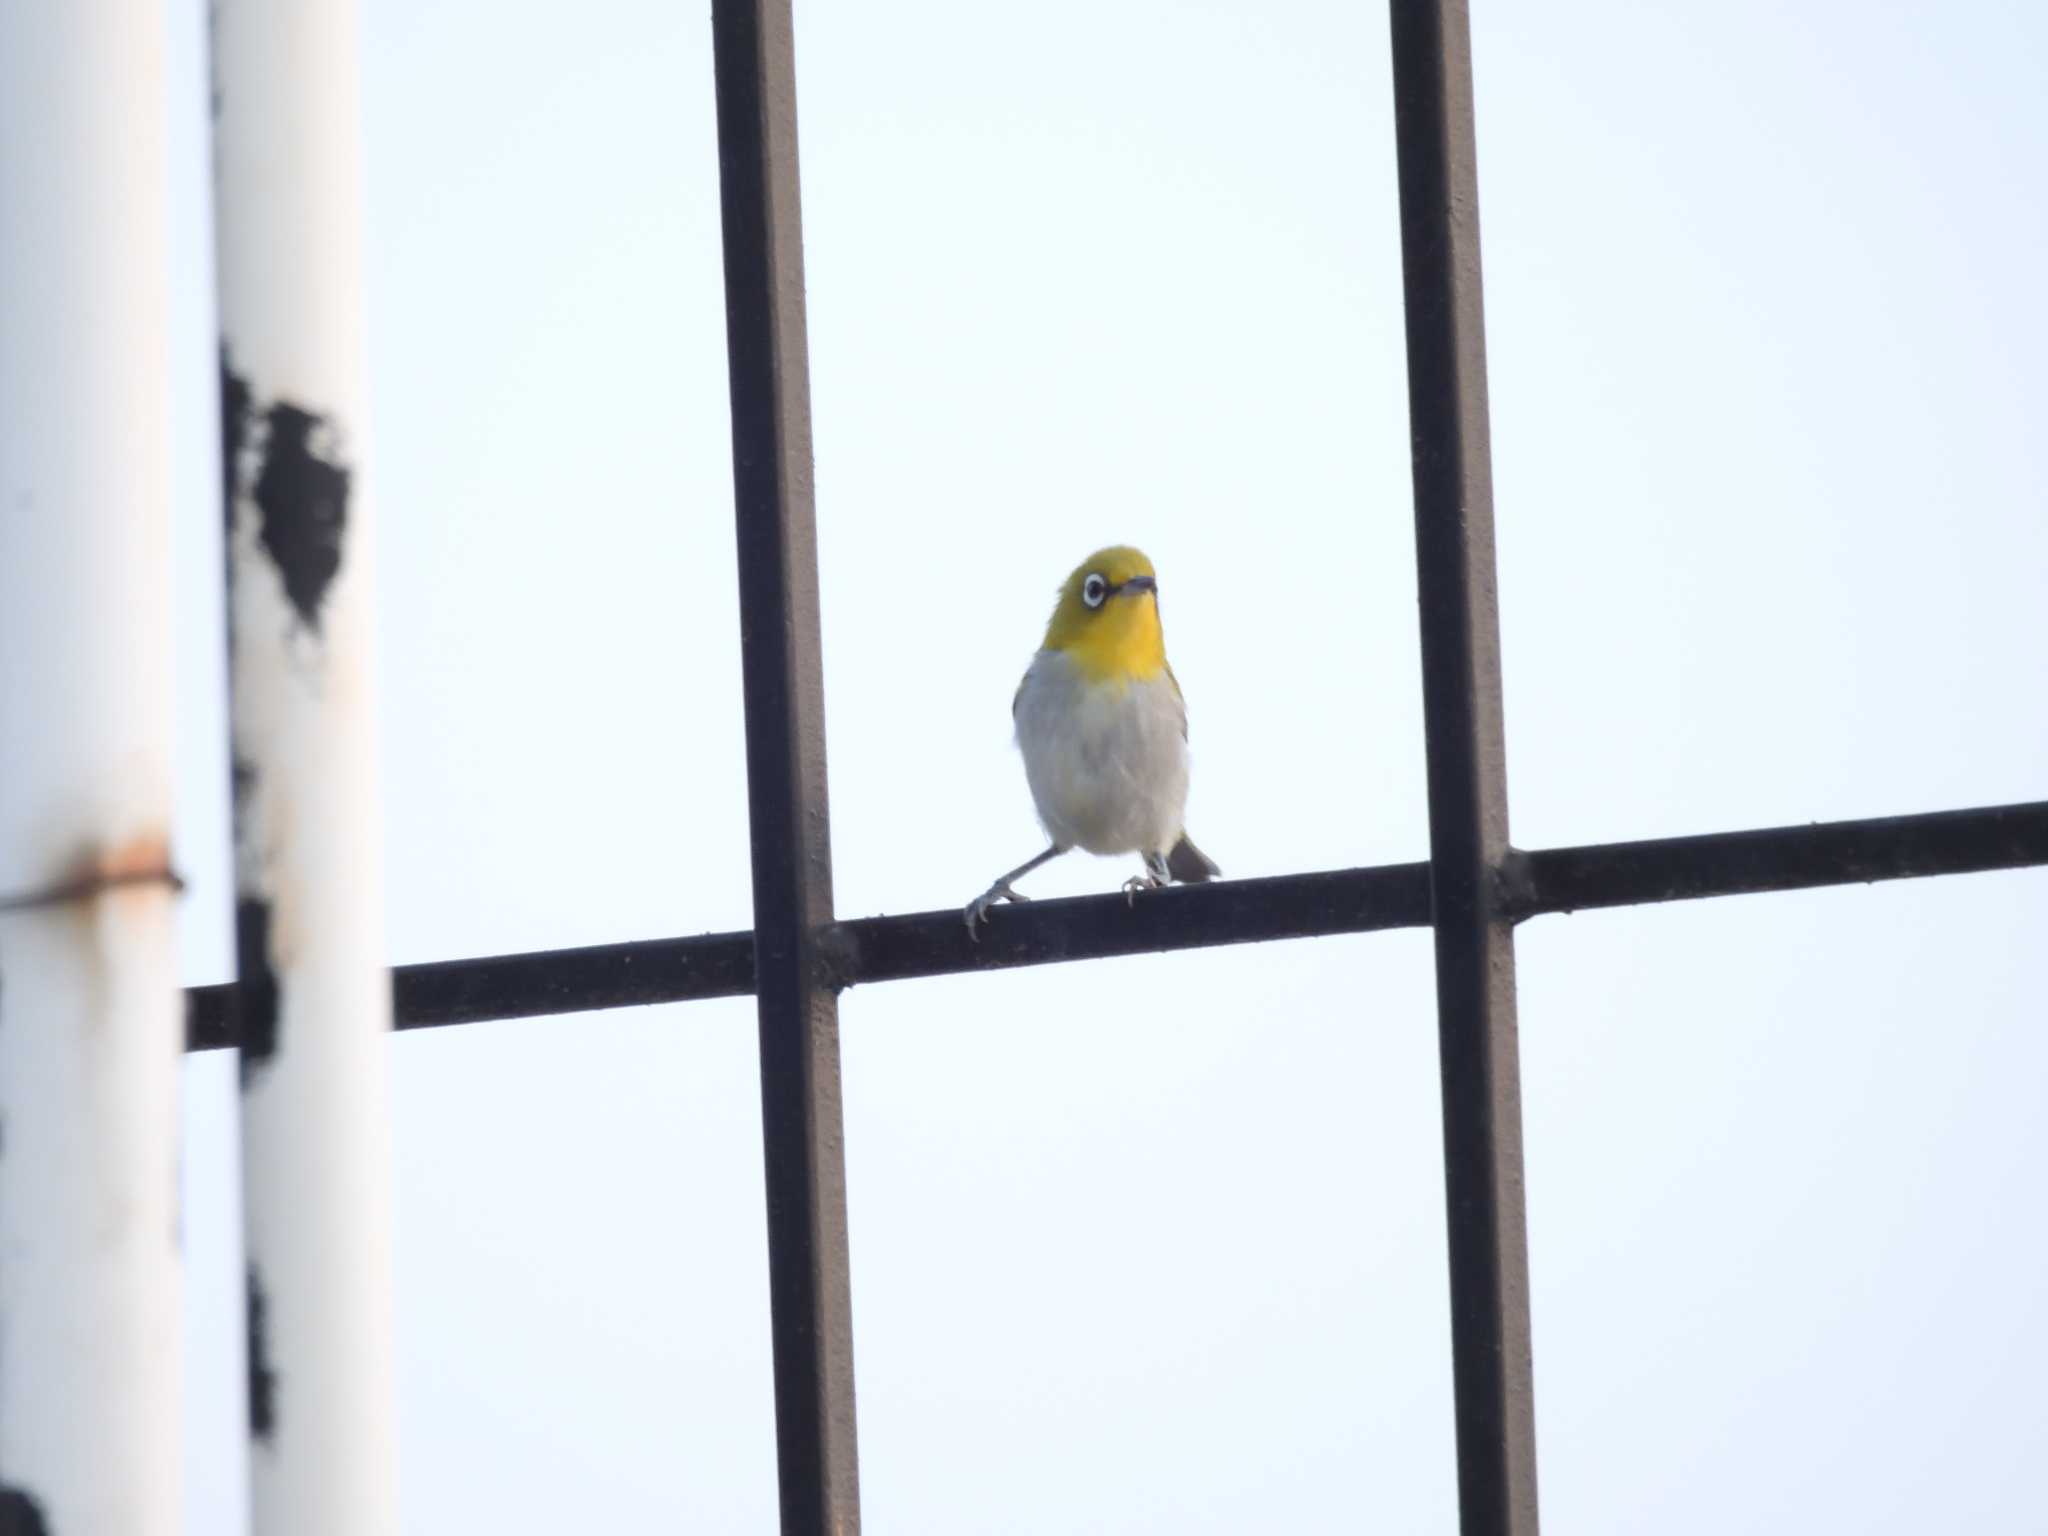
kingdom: Animalia
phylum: Chordata
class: Aves
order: Passeriformes
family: Zosteropidae
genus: Zosterops
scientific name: Zosterops palpebrosus
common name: Oriental white-eye
